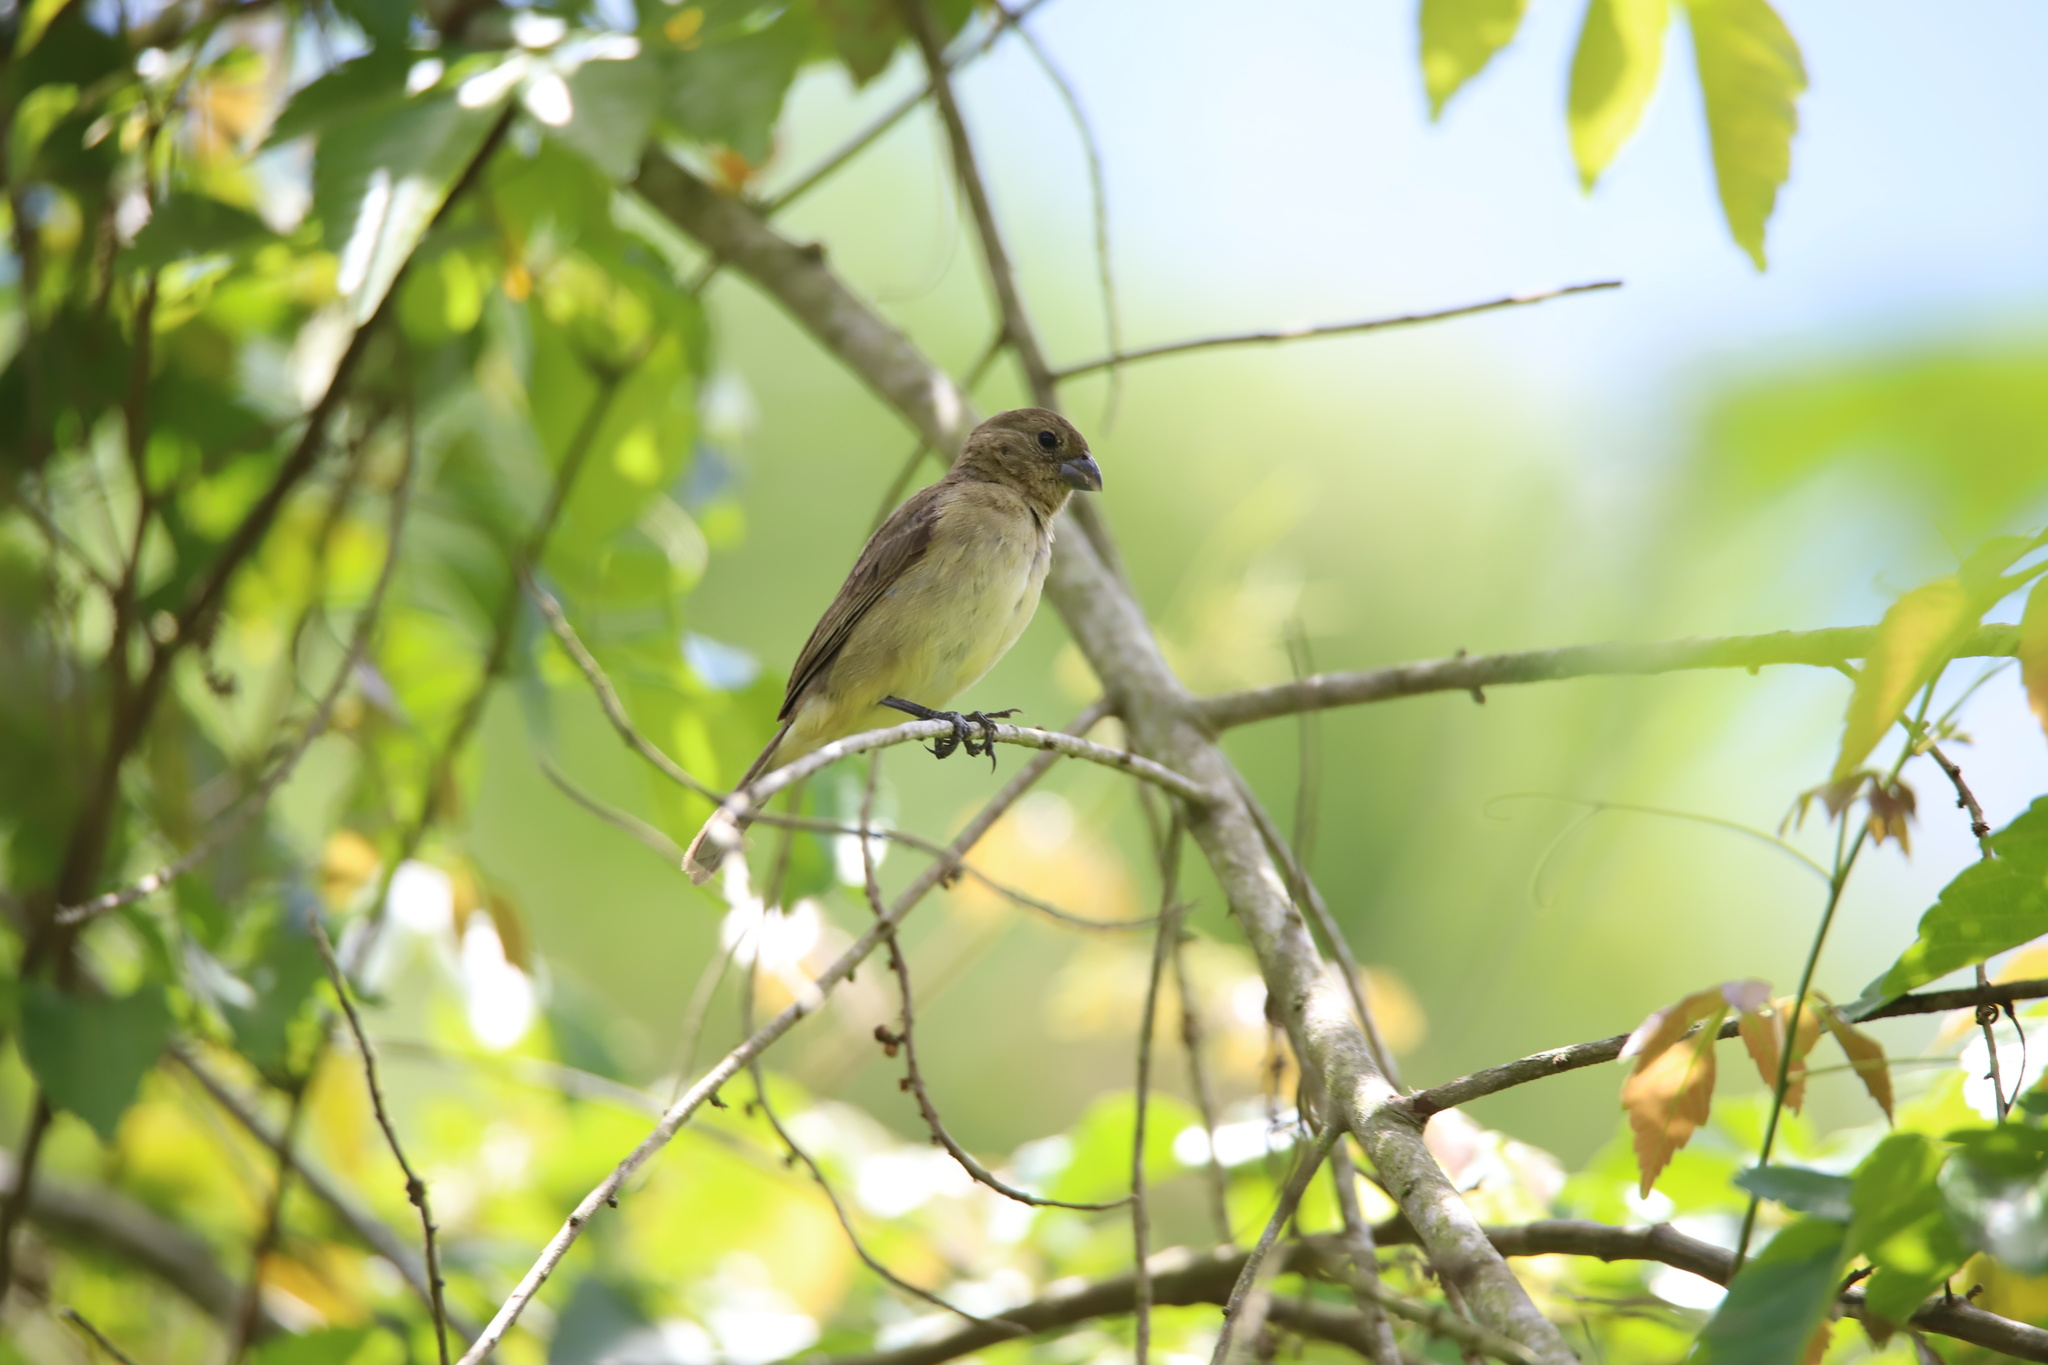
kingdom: Animalia
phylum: Chordata
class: Aves
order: Passeriformes
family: Thraupidae
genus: Sporophila
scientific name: Sporophila nigricollis
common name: Yellow-bellied seedeater
